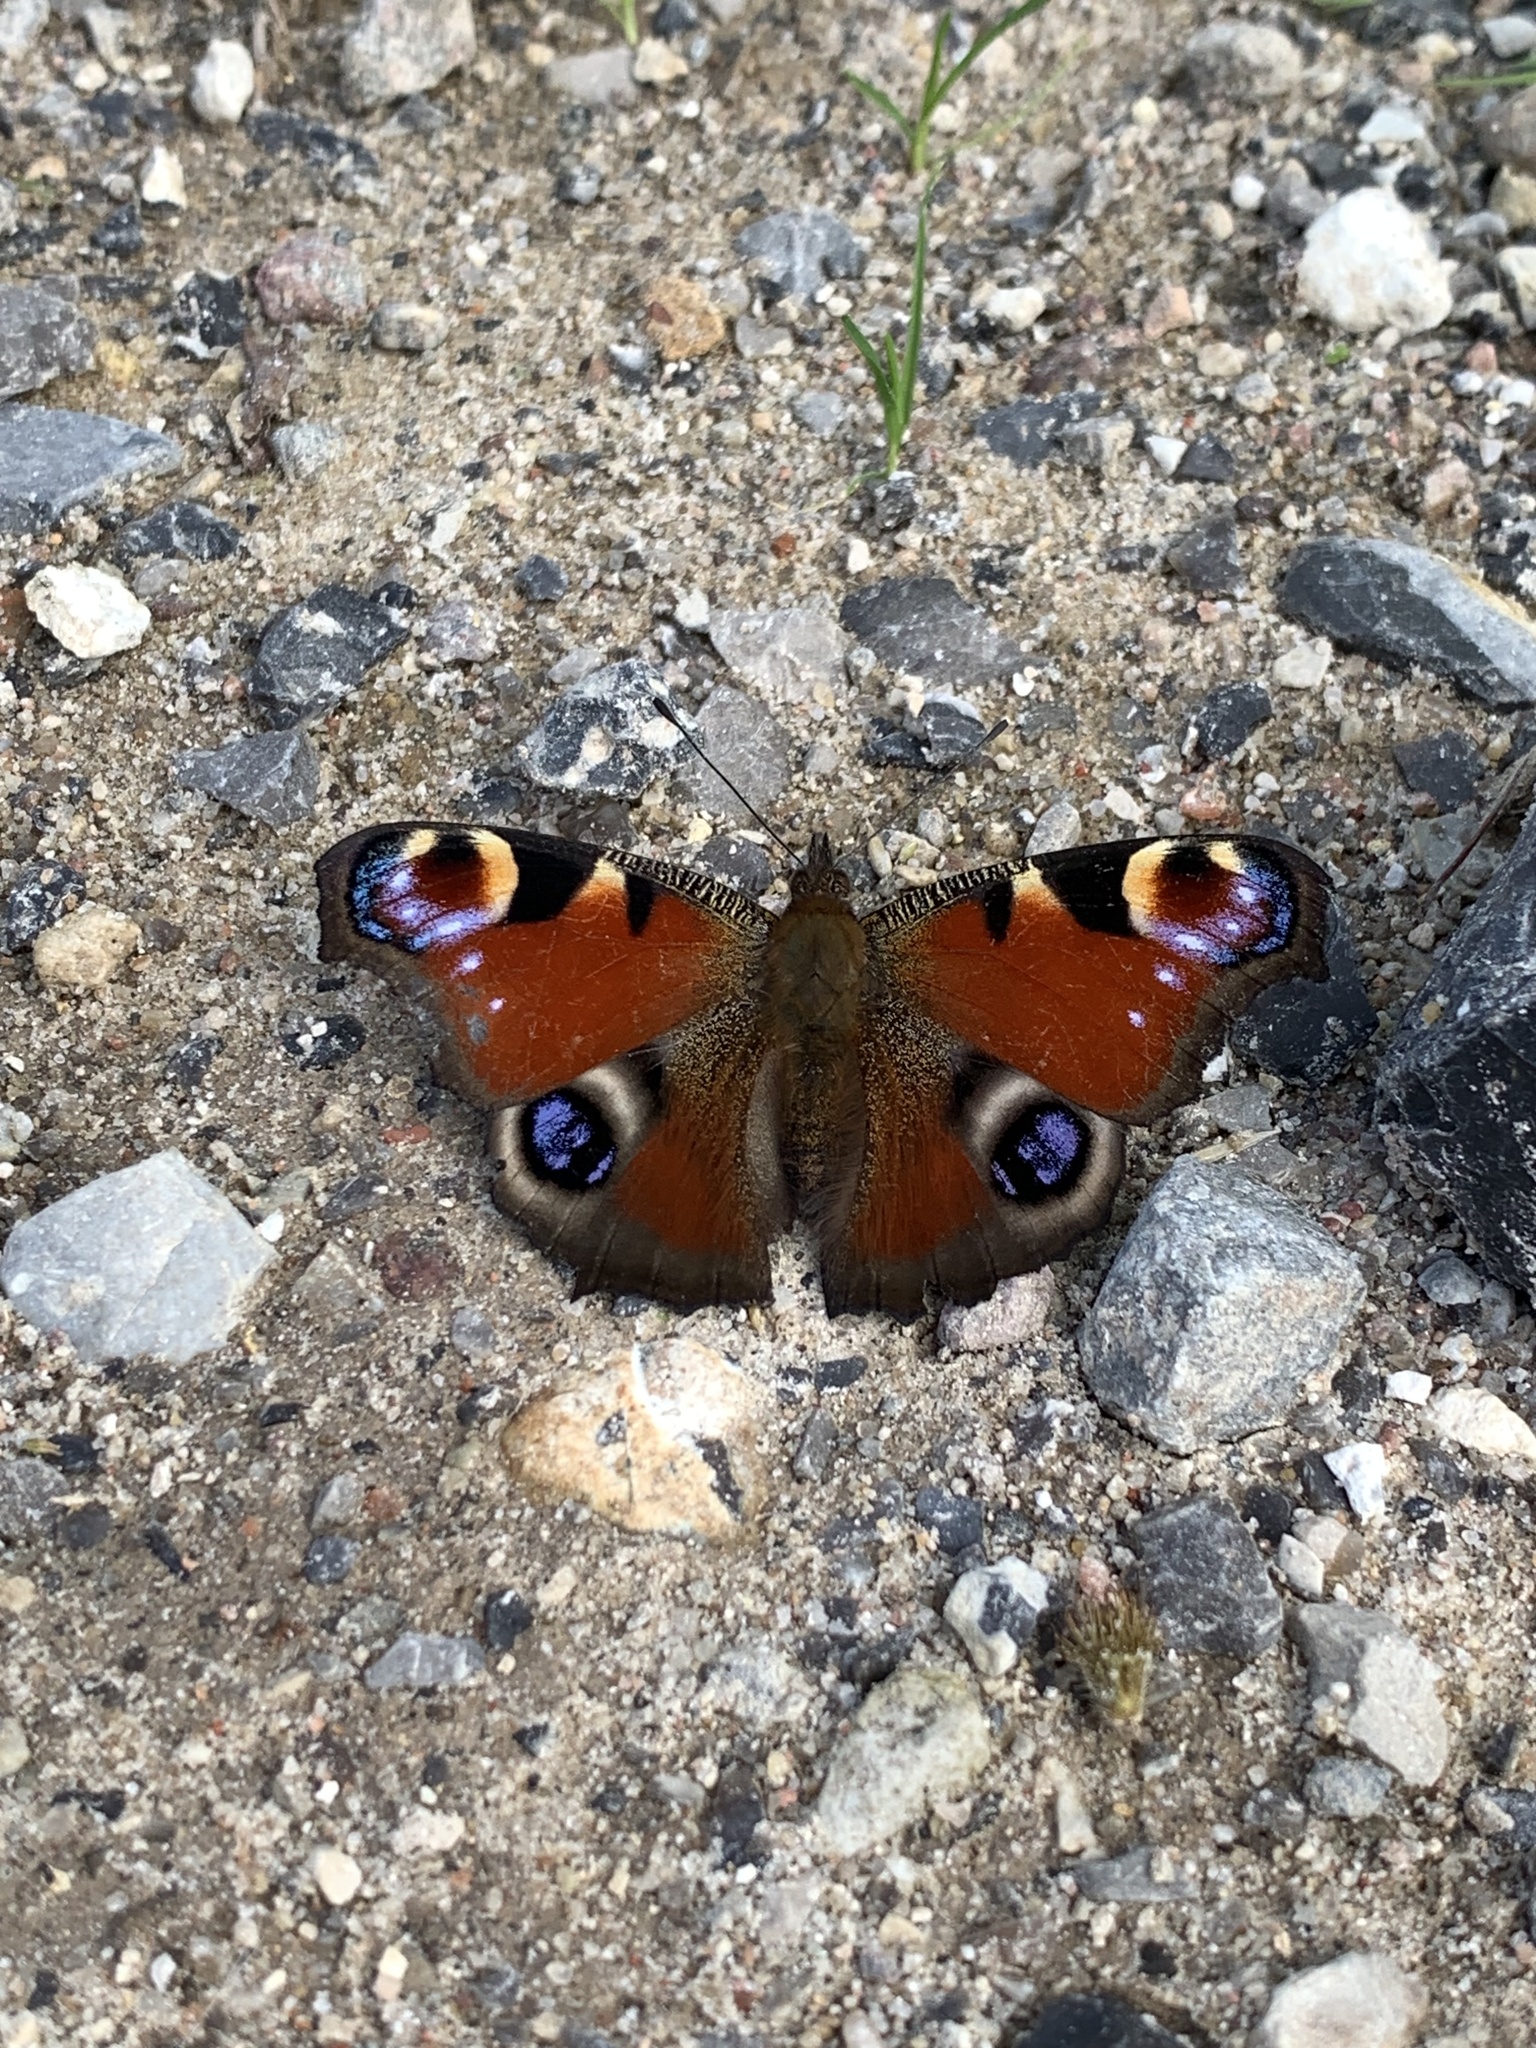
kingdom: Animalia
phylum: Arthropoda
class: Insecta
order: Lepidoptera
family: Nymphalidae
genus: Aglais
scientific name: Aglais io
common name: Peacock
